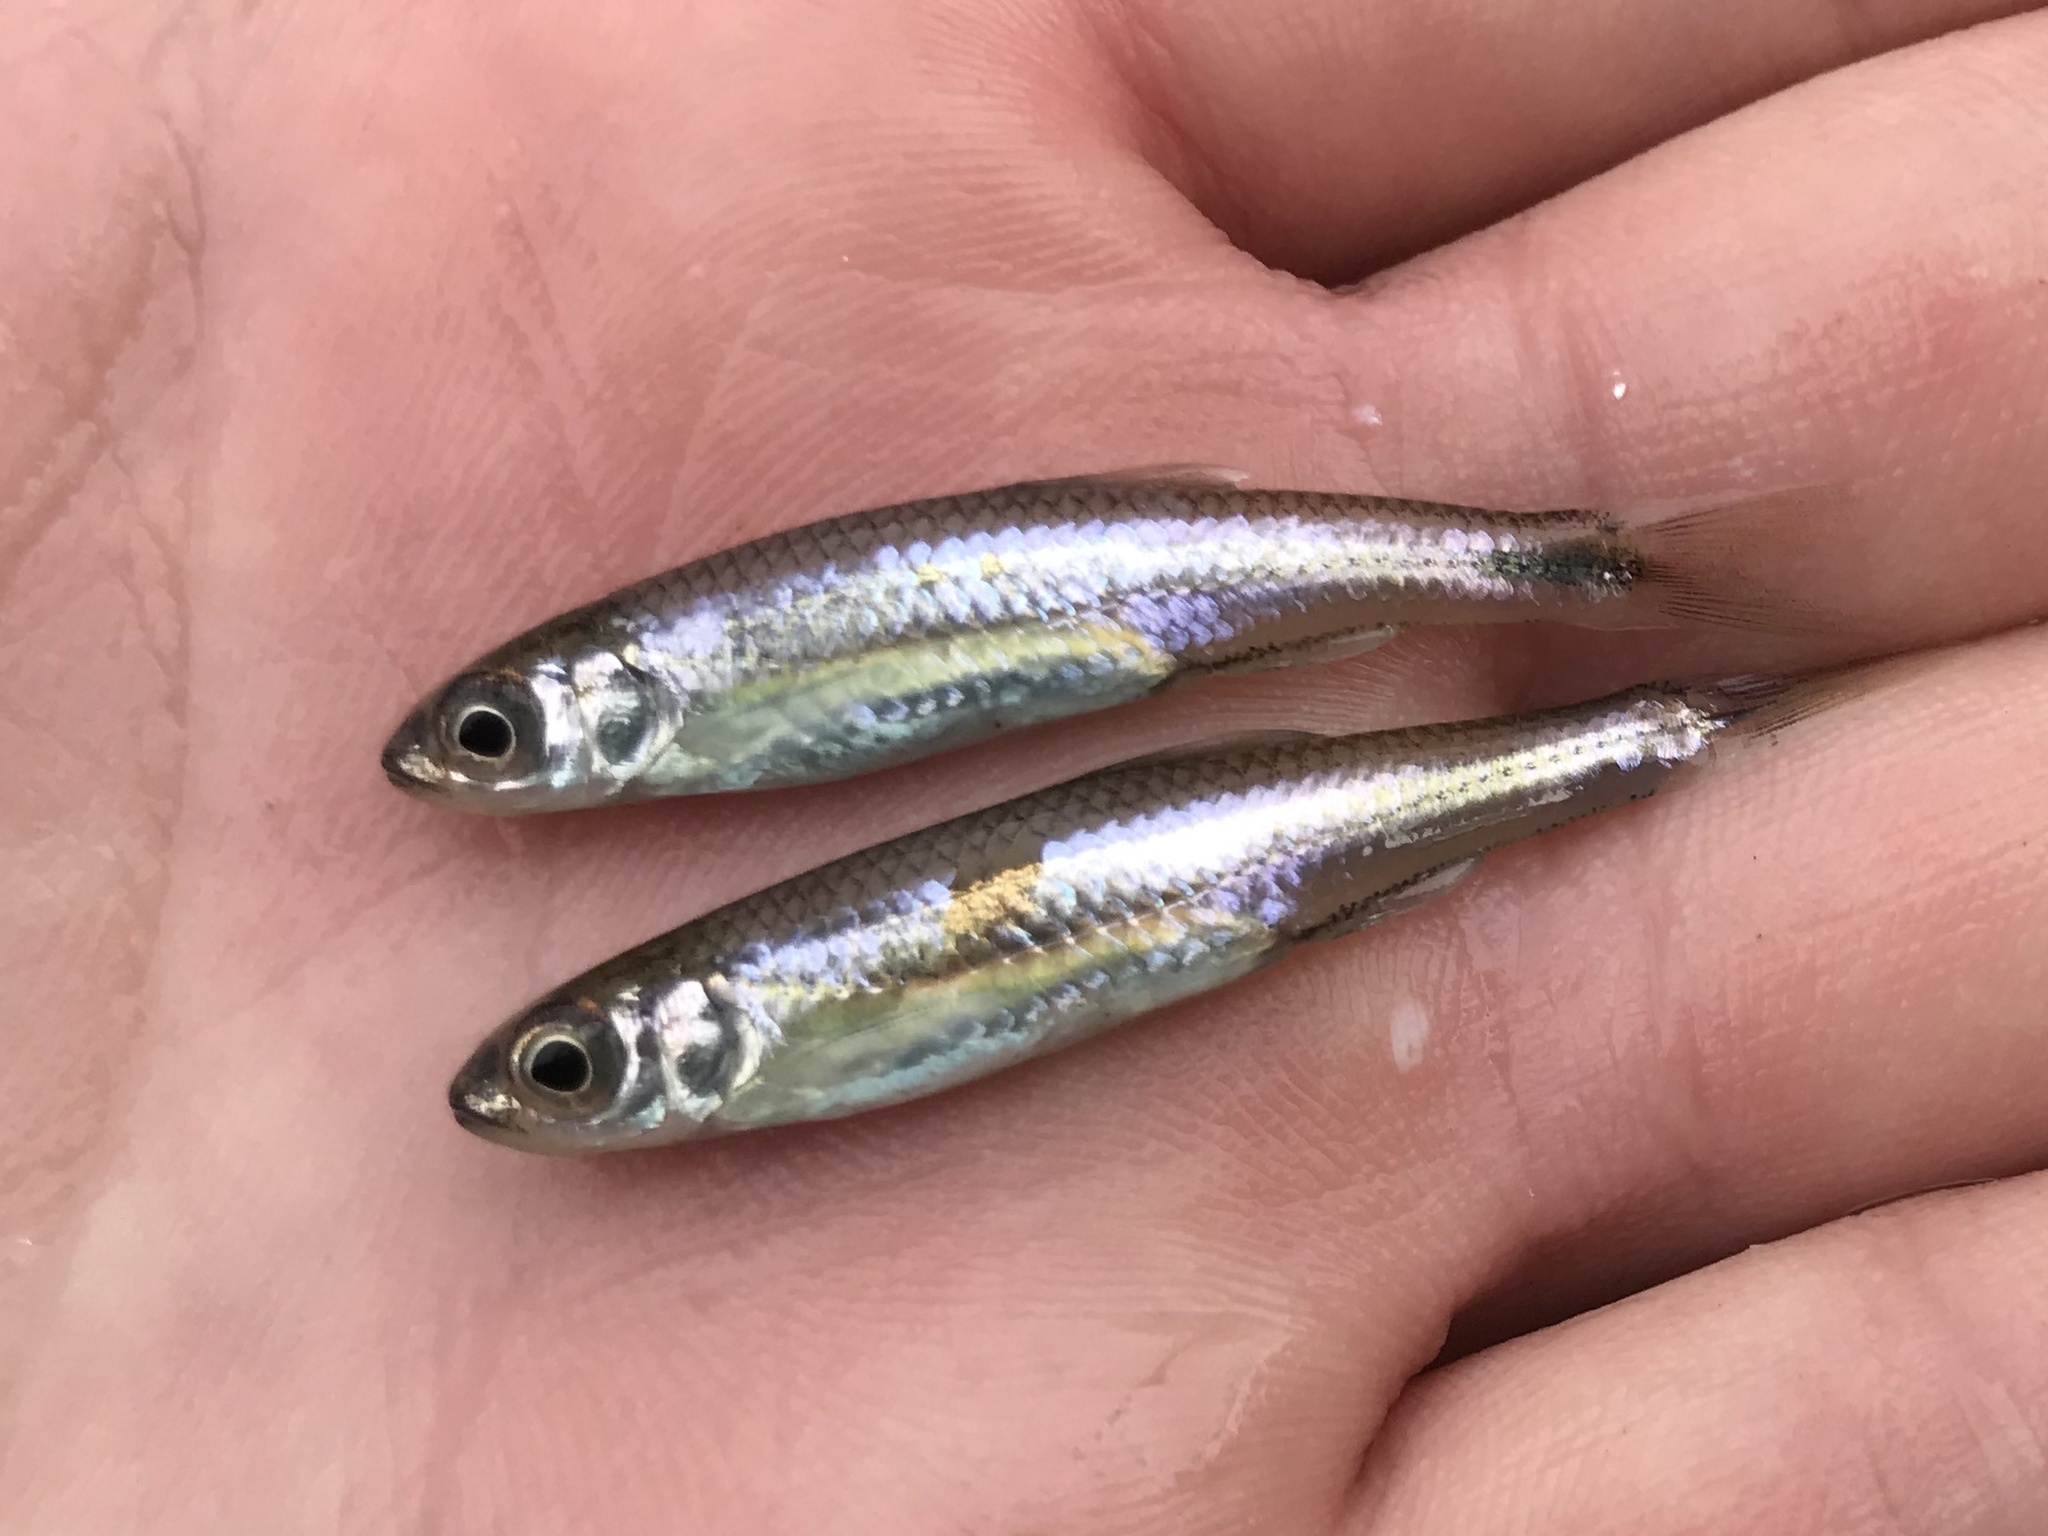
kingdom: Animalia
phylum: Chordata
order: Cypriniformes
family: Cyprinidae
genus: Notropis
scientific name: Notropis amabilis
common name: Texas shiner
